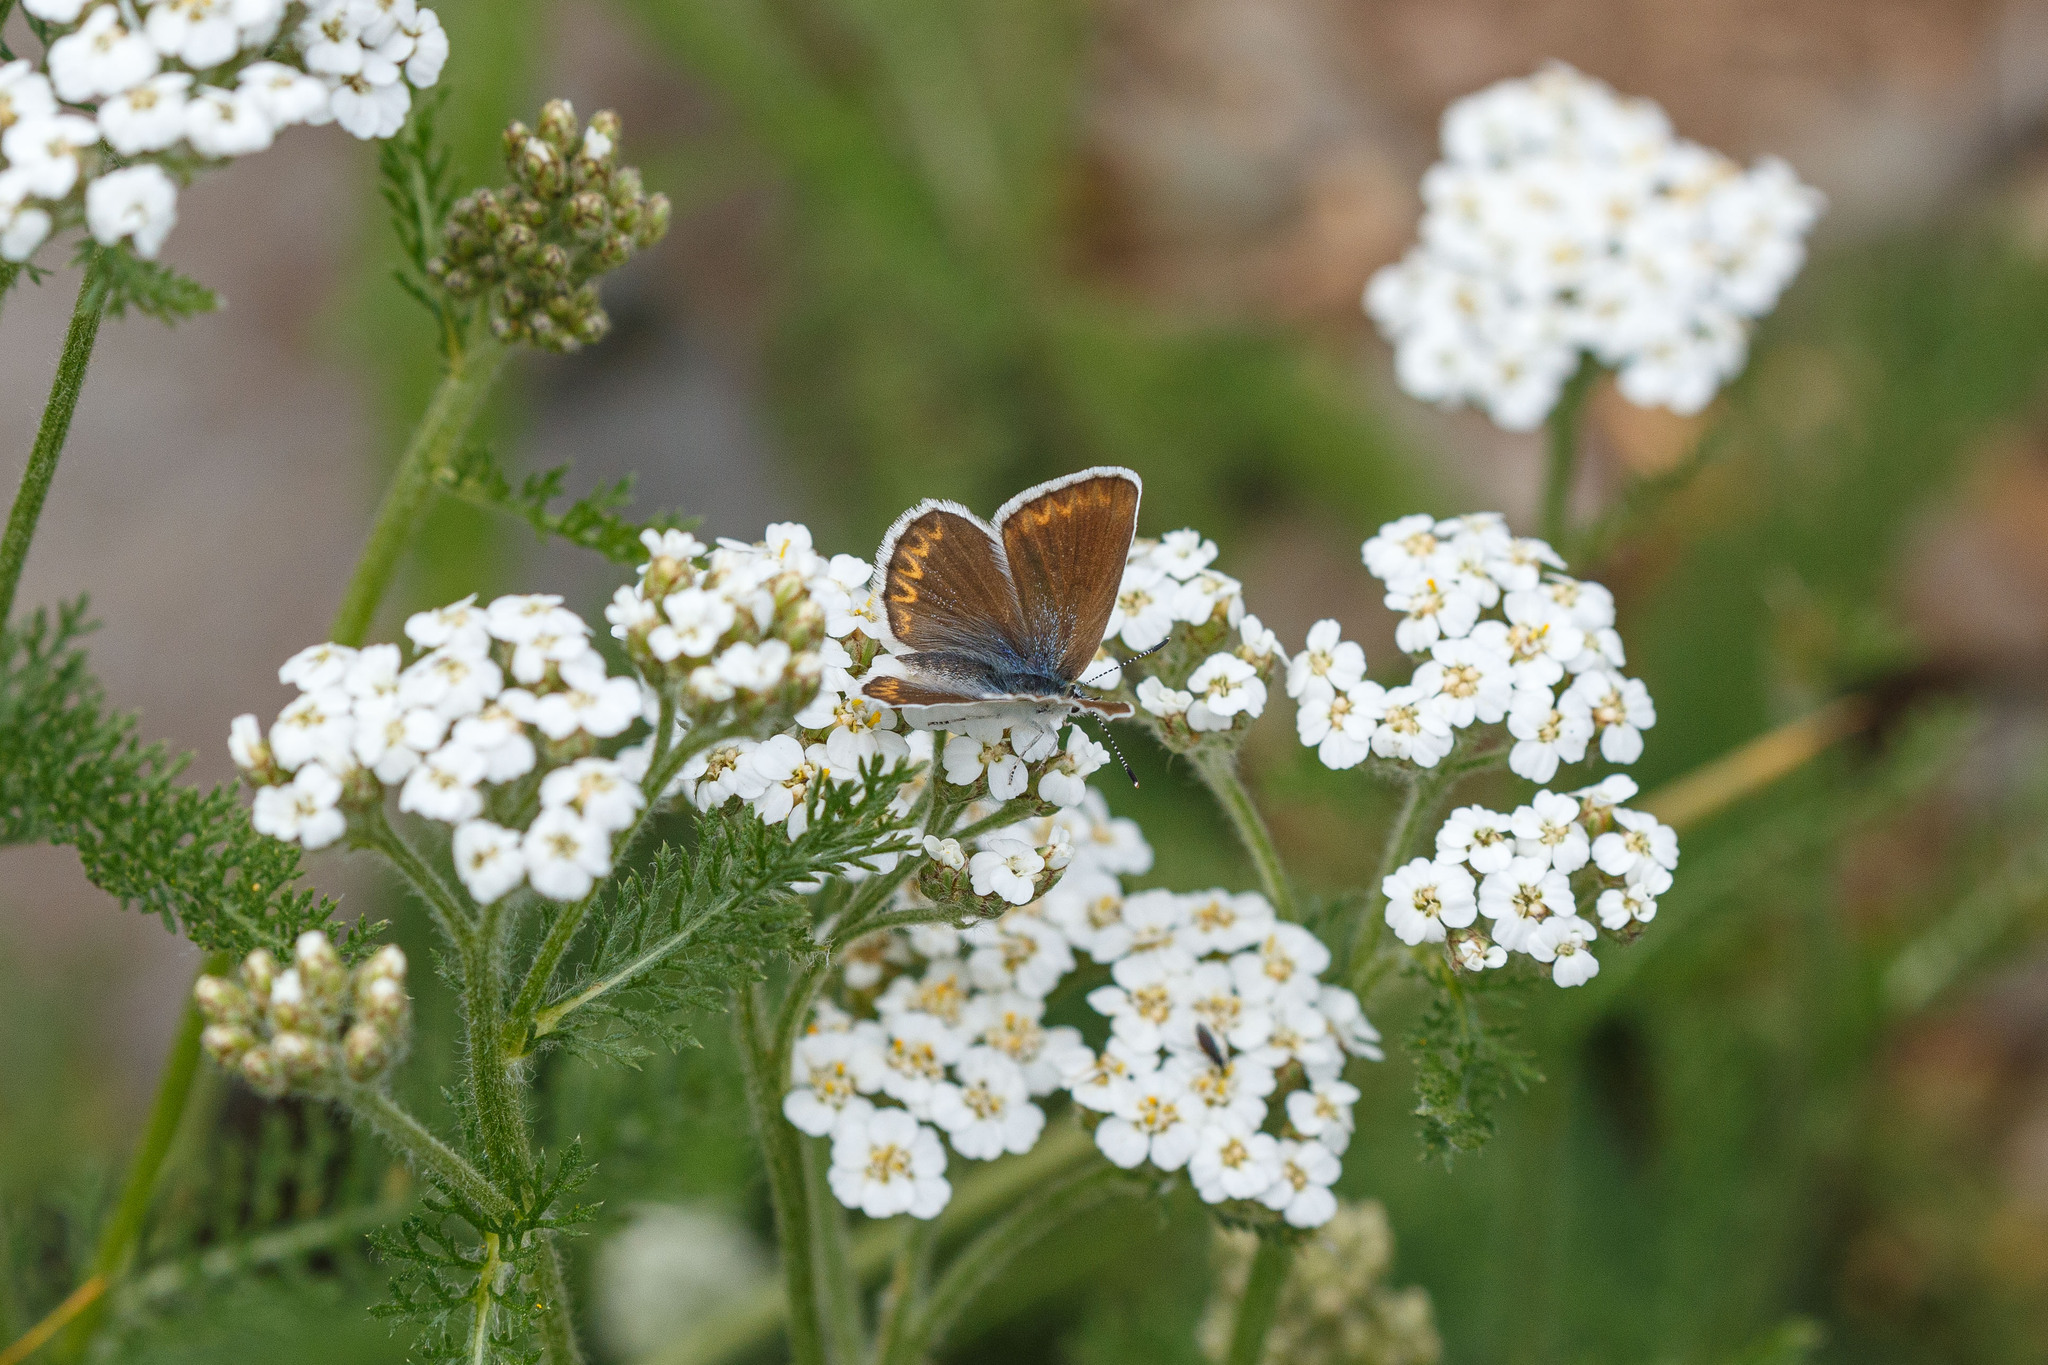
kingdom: Animalia
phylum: Arthropoda
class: Insecta
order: Lepidoptera
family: Lycaenidae
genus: Lycaeides
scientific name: Lycaeides anna
